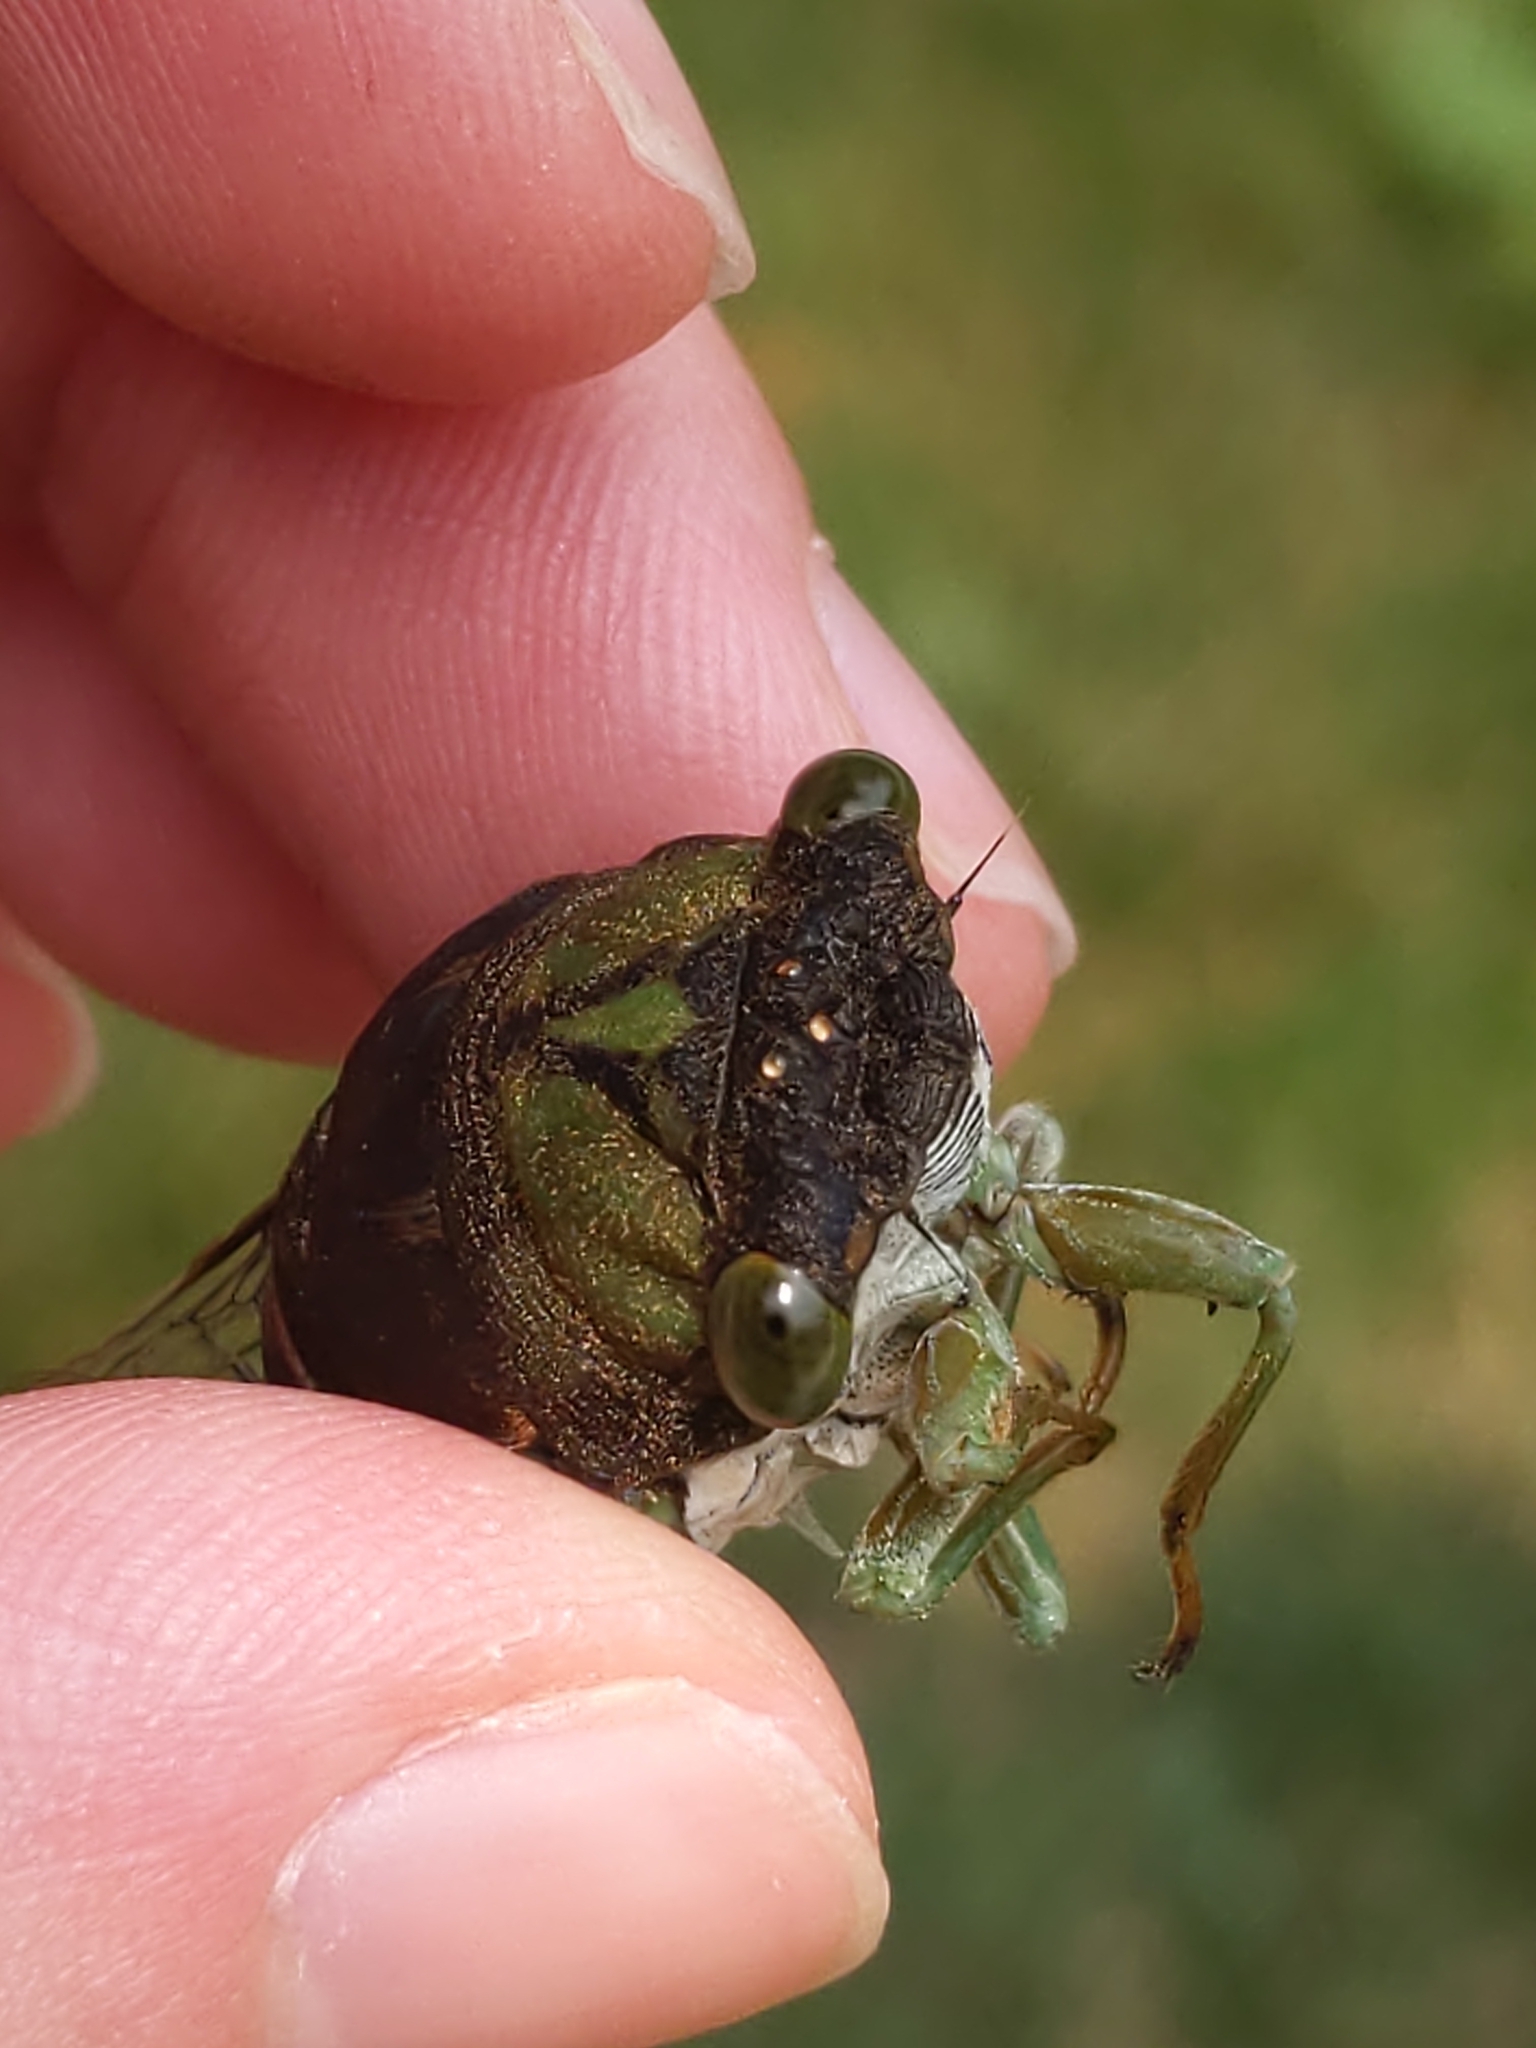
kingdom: Animalia
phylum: Arthropoda
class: Insecta
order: Hemiptera
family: Cicadidae
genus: Neotibicen
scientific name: Neotibicen tibicen
